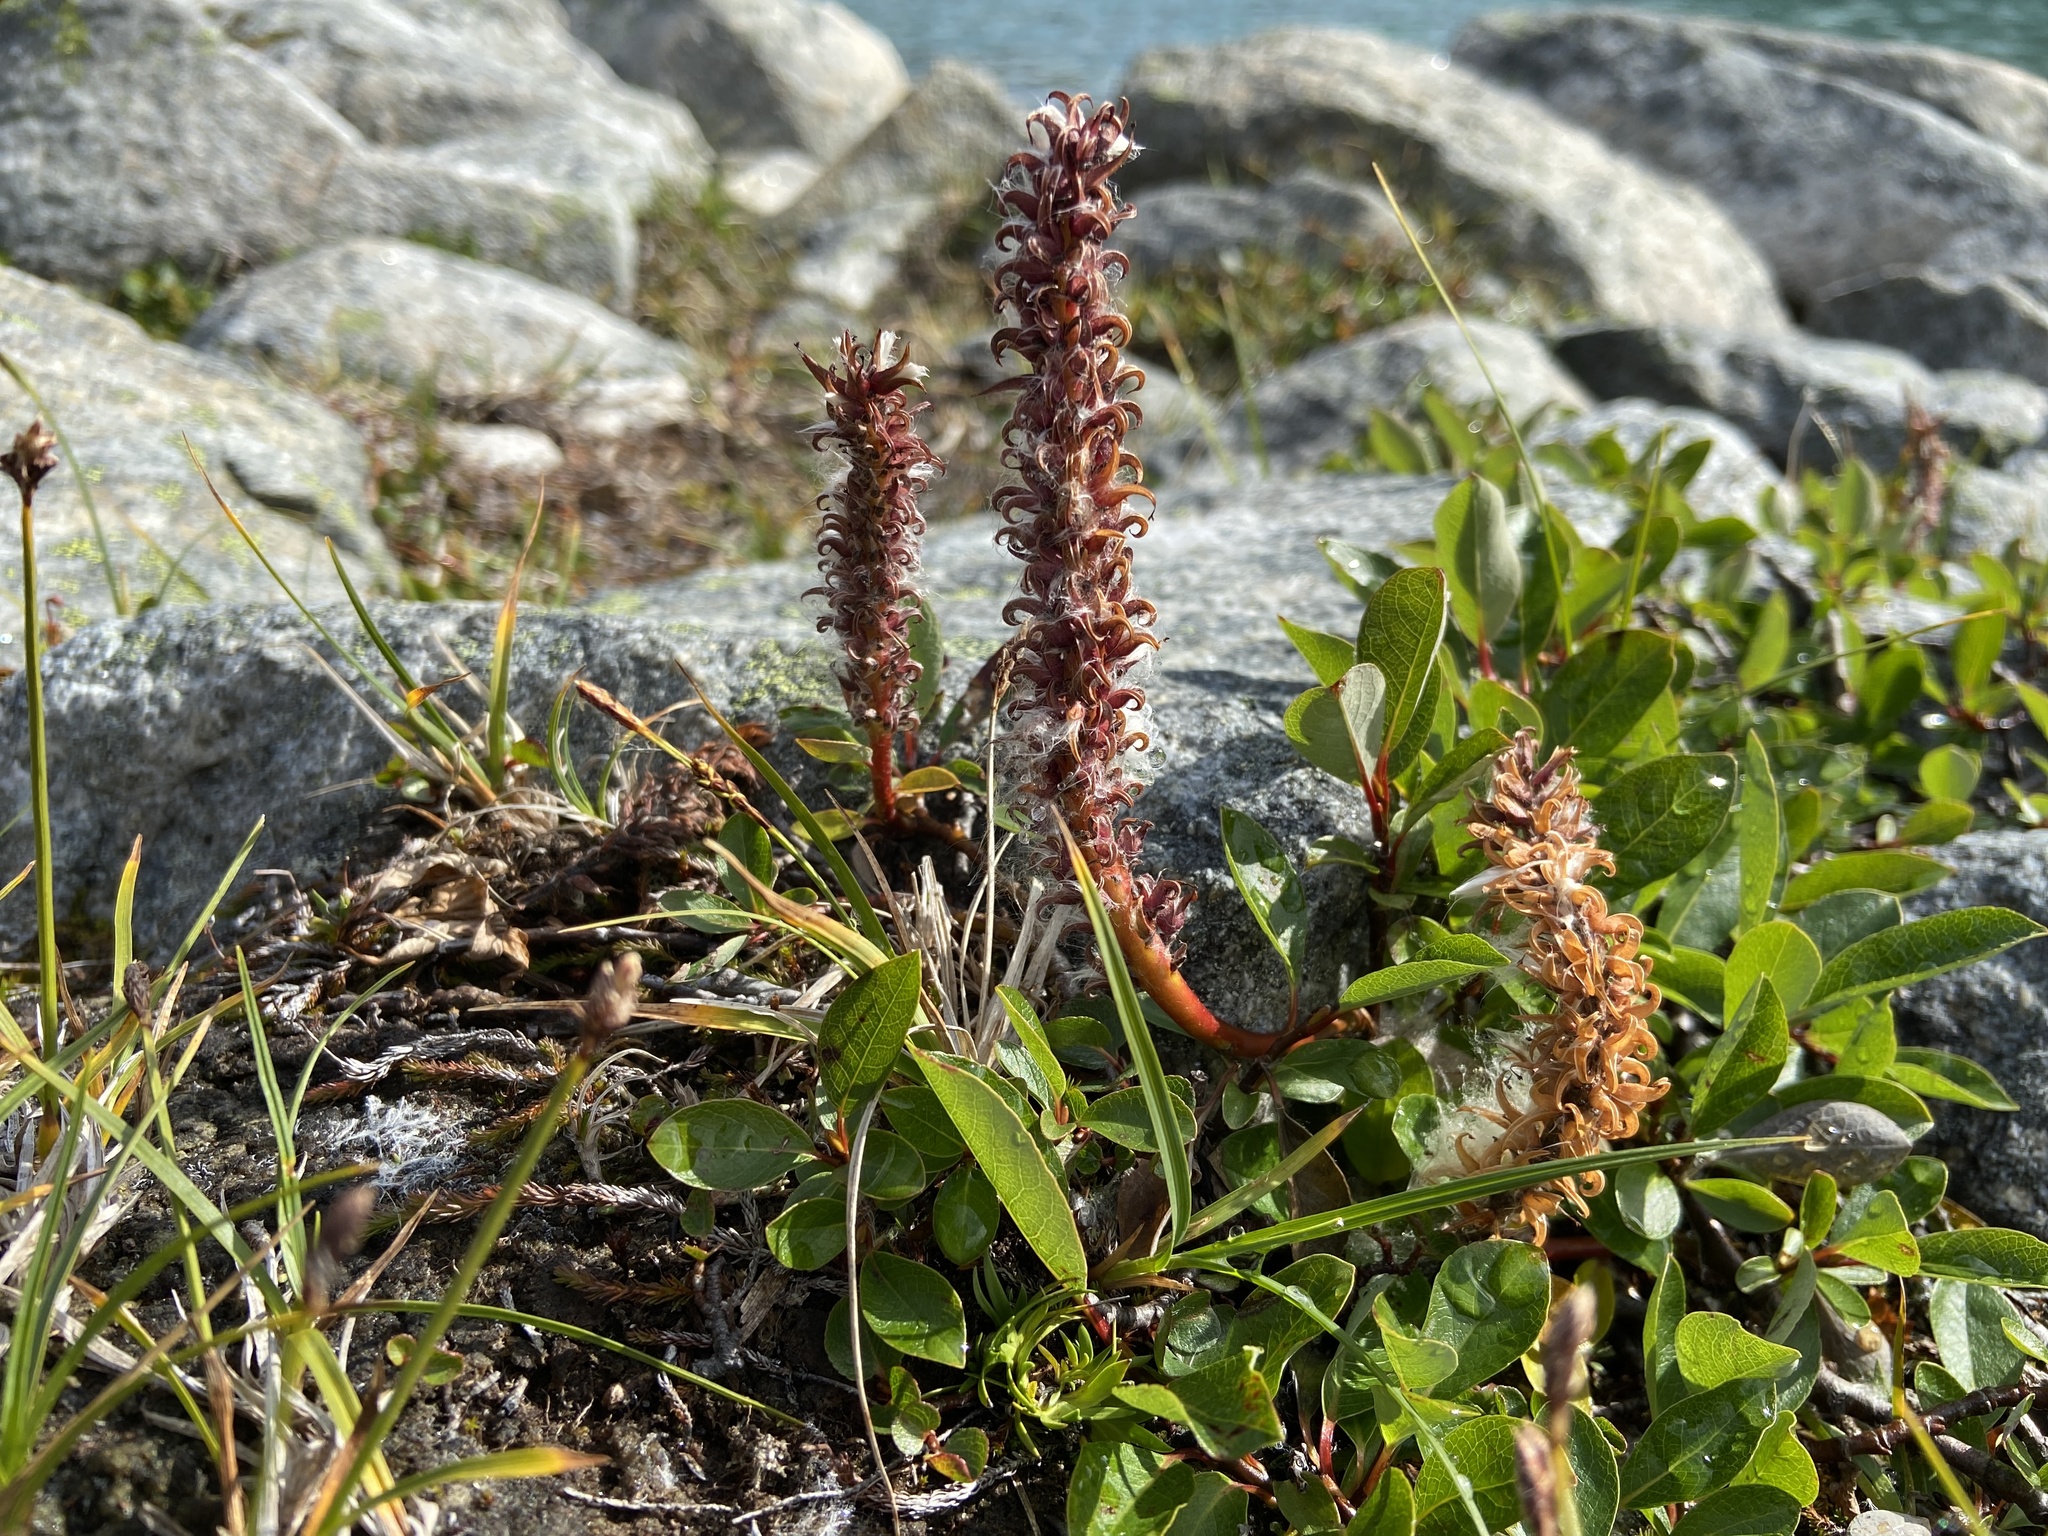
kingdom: Plantae
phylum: Tracheophyta
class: Magnoliopsida
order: Malpighiales
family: Salicaceae
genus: Salix
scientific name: Salix arctophila
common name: Greenland willow
